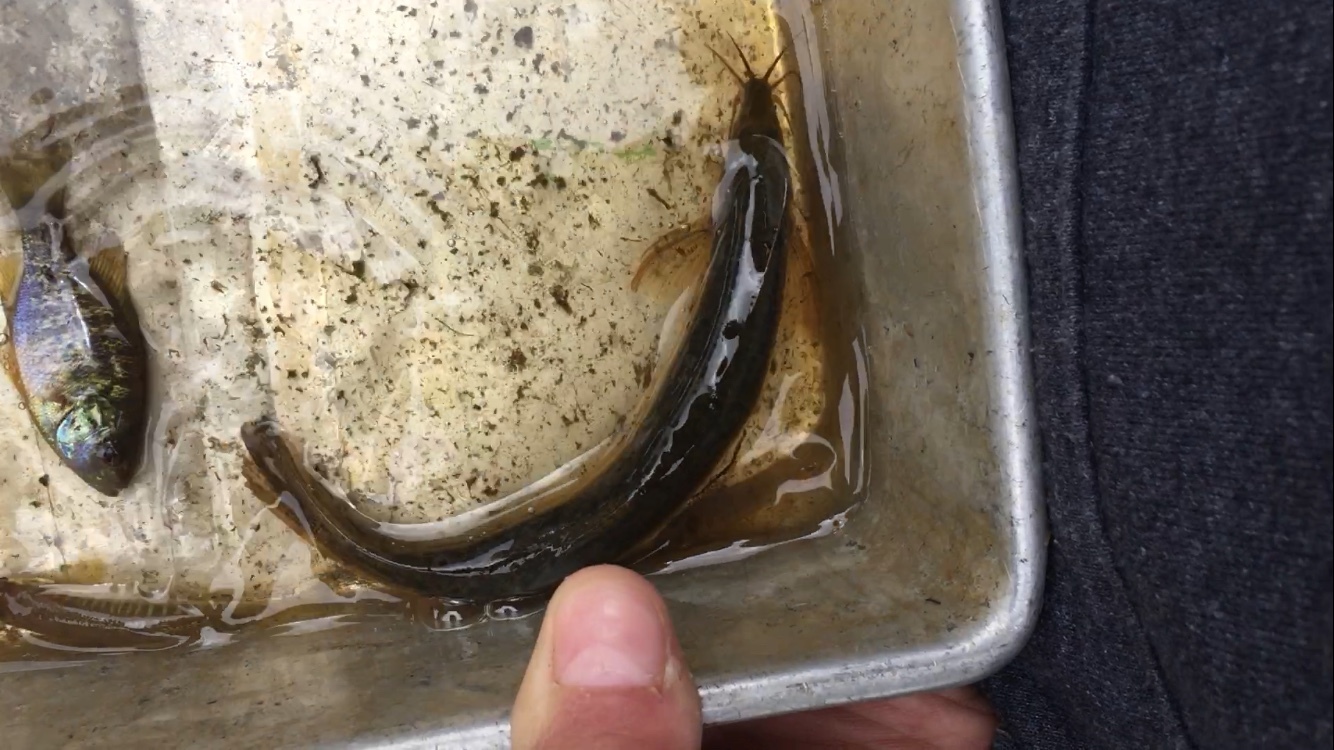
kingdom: Animalia
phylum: Chordata
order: Cypriniformes
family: Cobitidae
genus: Misgurnus
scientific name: Misgurnus anguillicaudatus
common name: Oriental weatherfish
